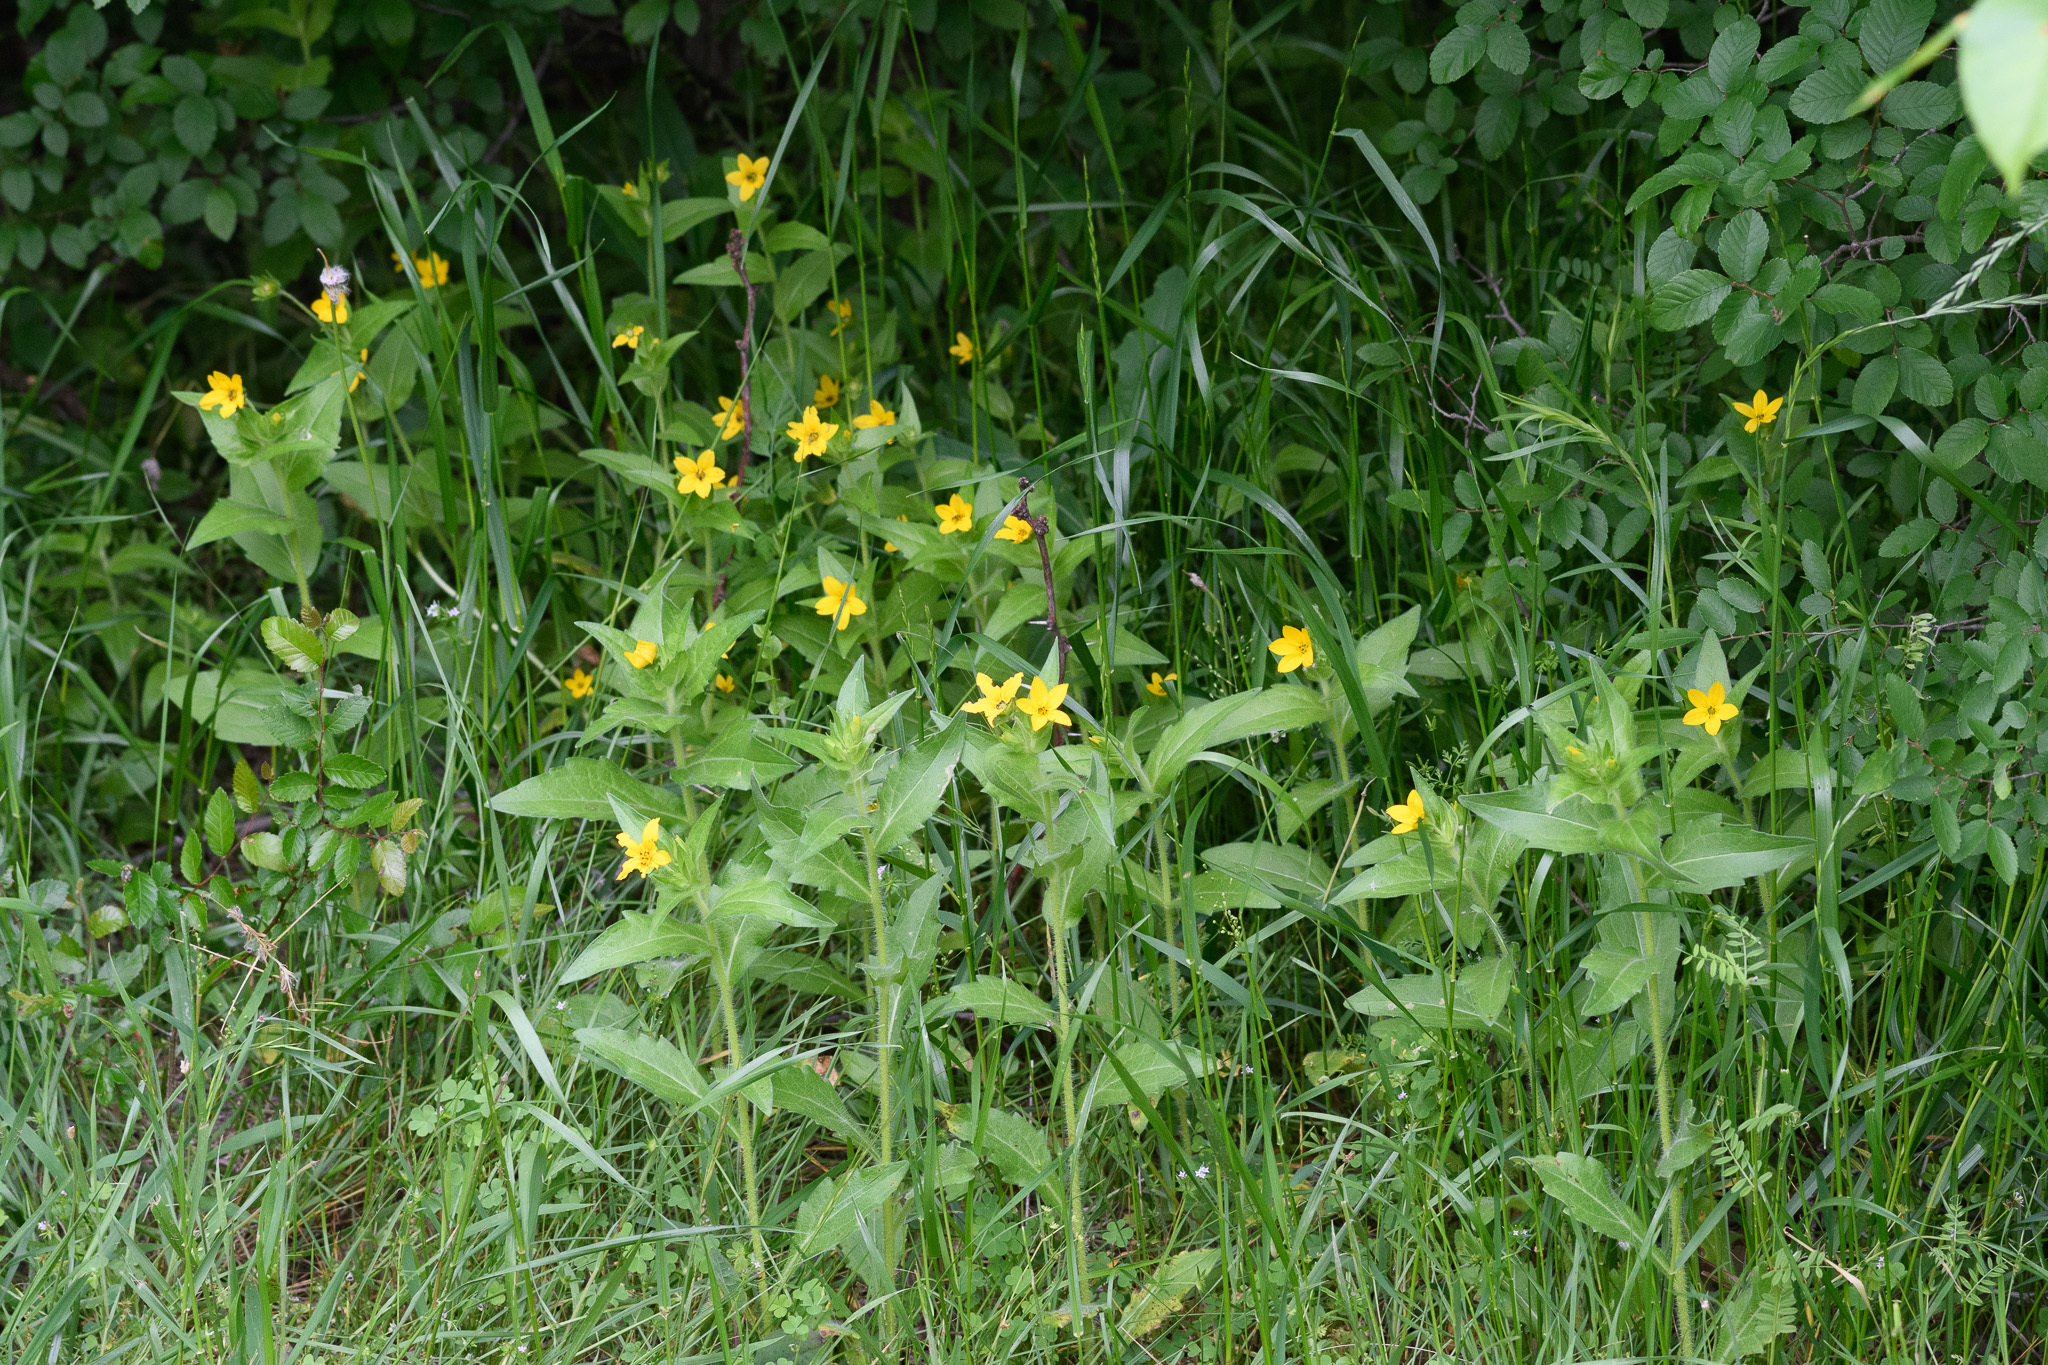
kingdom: Plantae
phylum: Tracheophyta
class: Magnoliopsida
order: Asterales
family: Asteraceae
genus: Lindheimera
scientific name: Lindheimera texana
